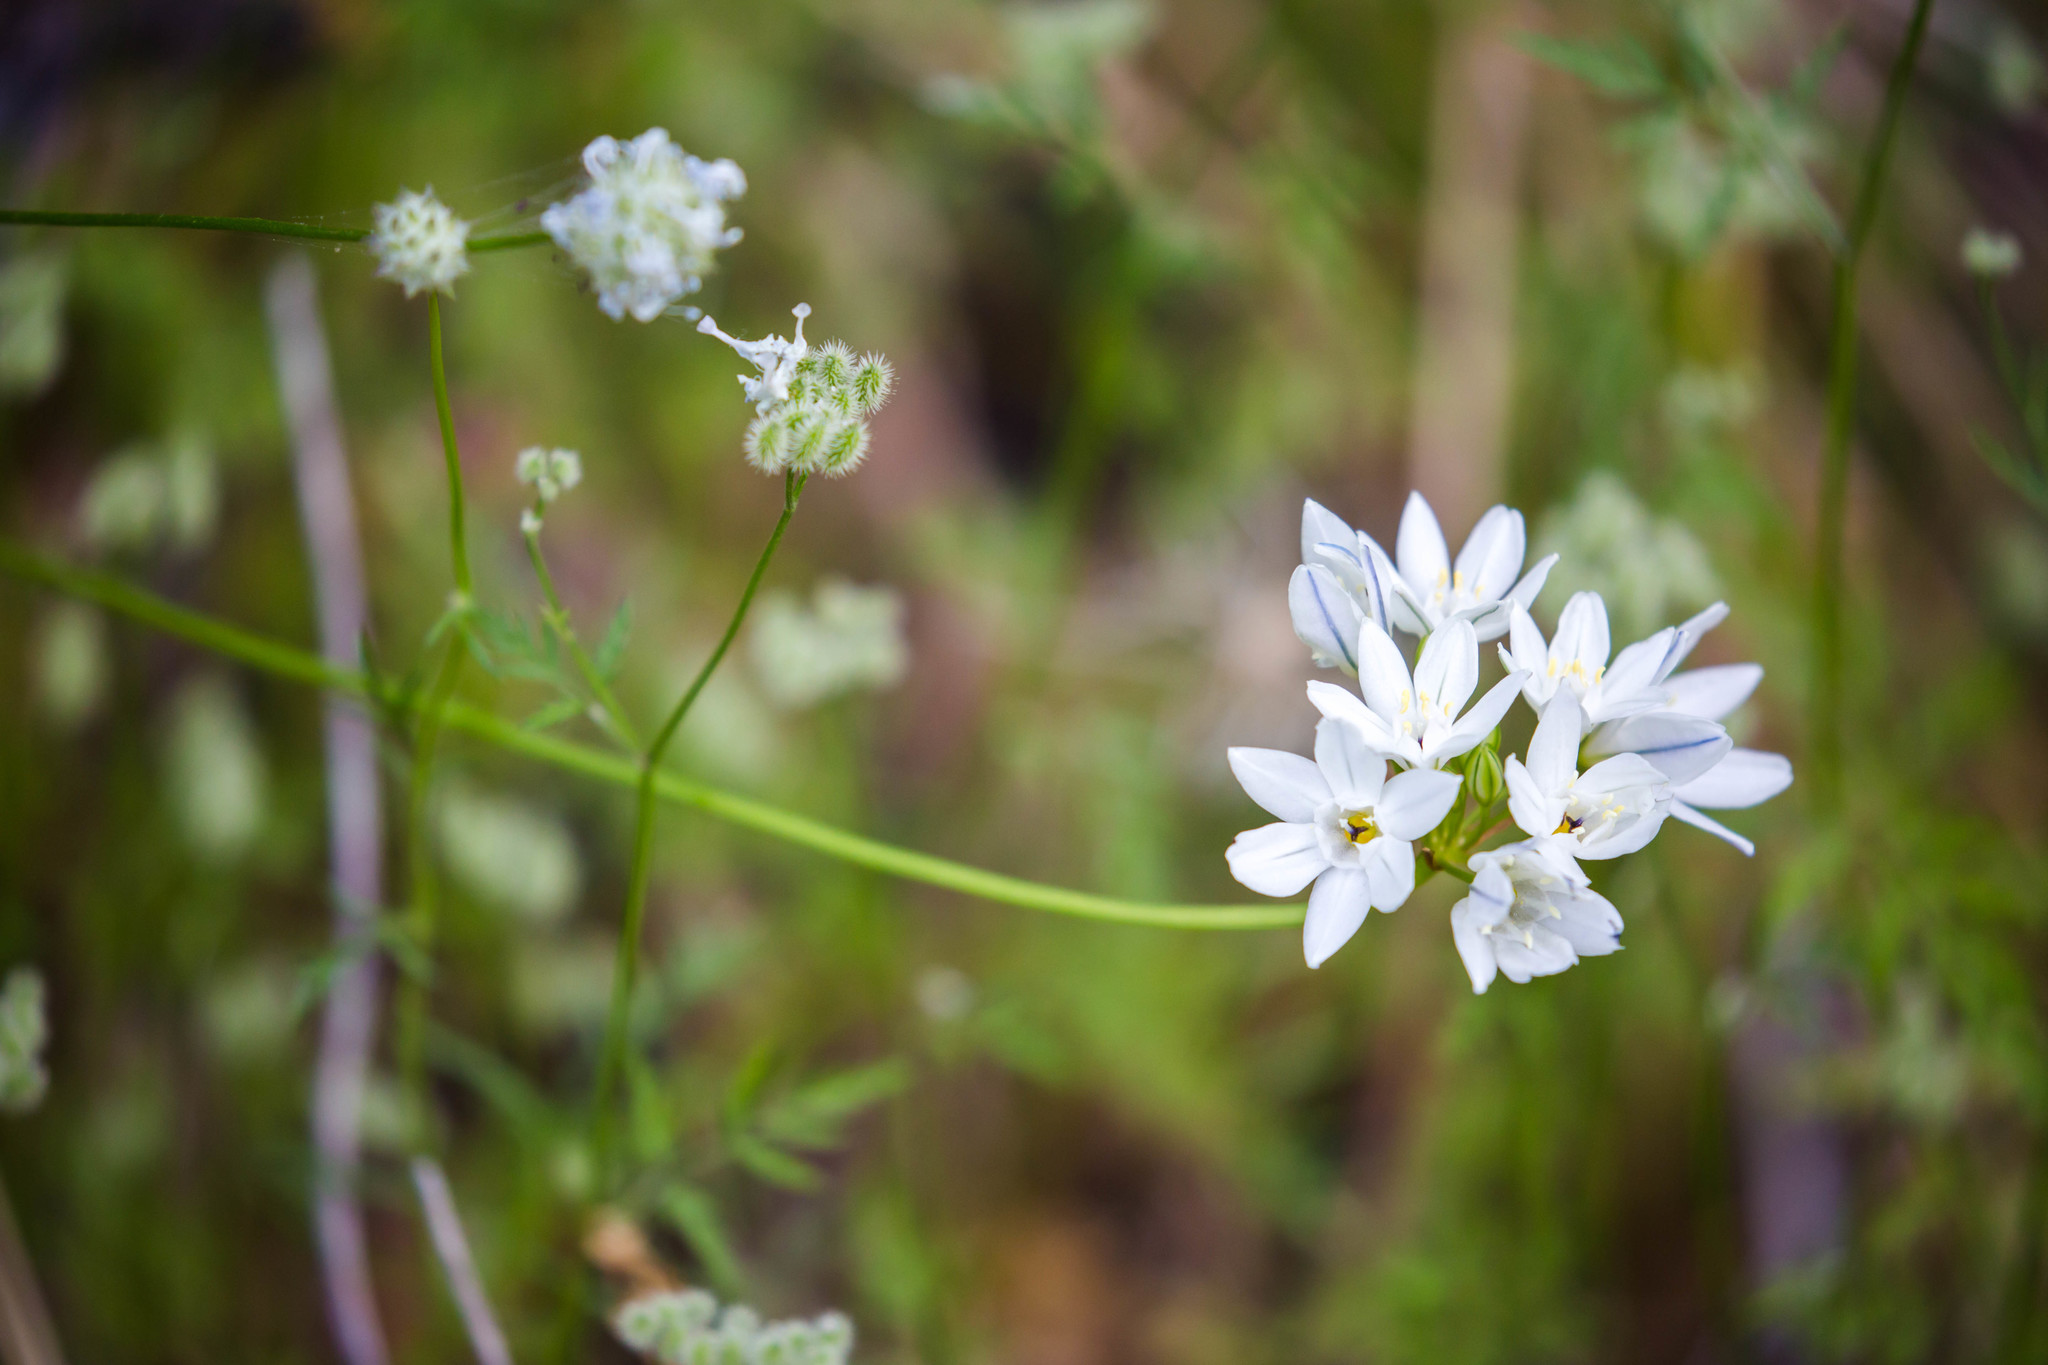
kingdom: Plantae
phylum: Tracheophyta
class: Liliopsida
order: Asparagales
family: Asparagaceae
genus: Triteleia
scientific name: Triteleia hyacinthina
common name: White brodiaea
